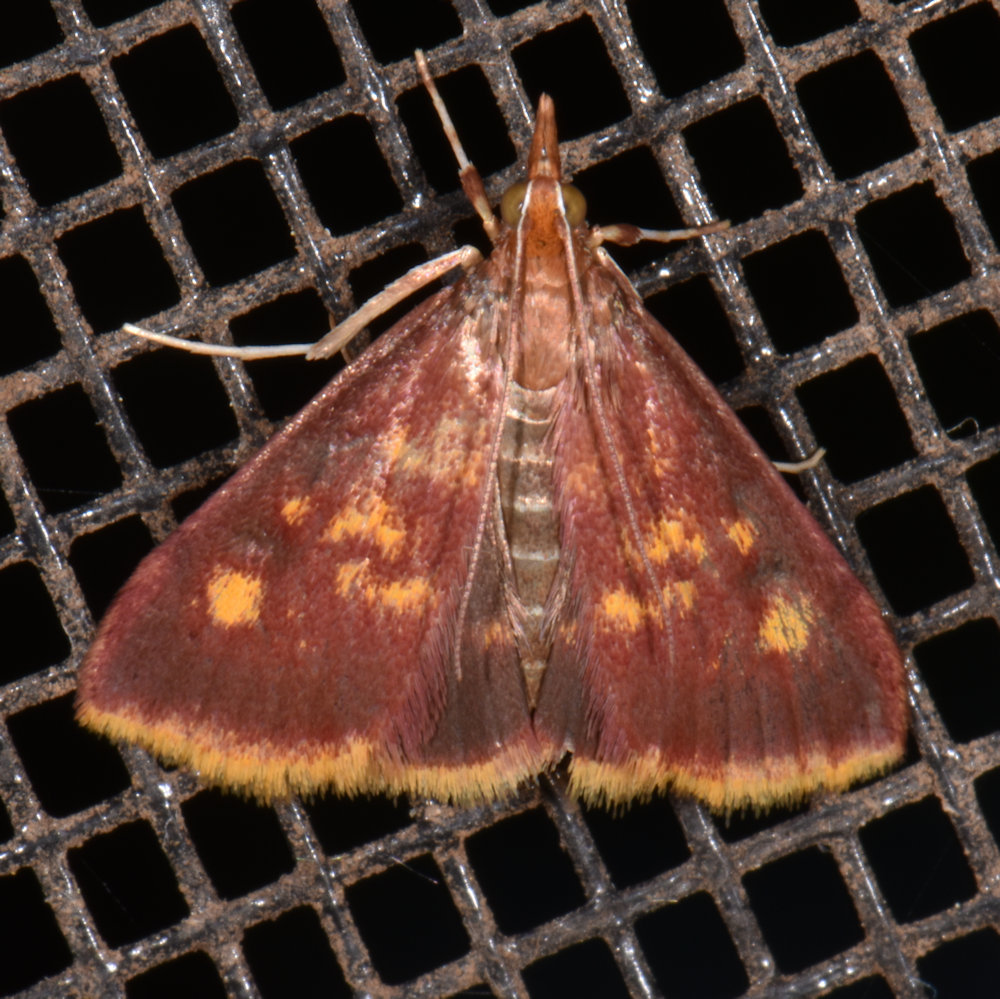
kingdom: Animalia
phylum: Arthropoda
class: Insecta
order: Lepidoptera
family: Crambidae
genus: Pyrausta
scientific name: Pyrausta acrionalis
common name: Mint-loving pyrausta moth
